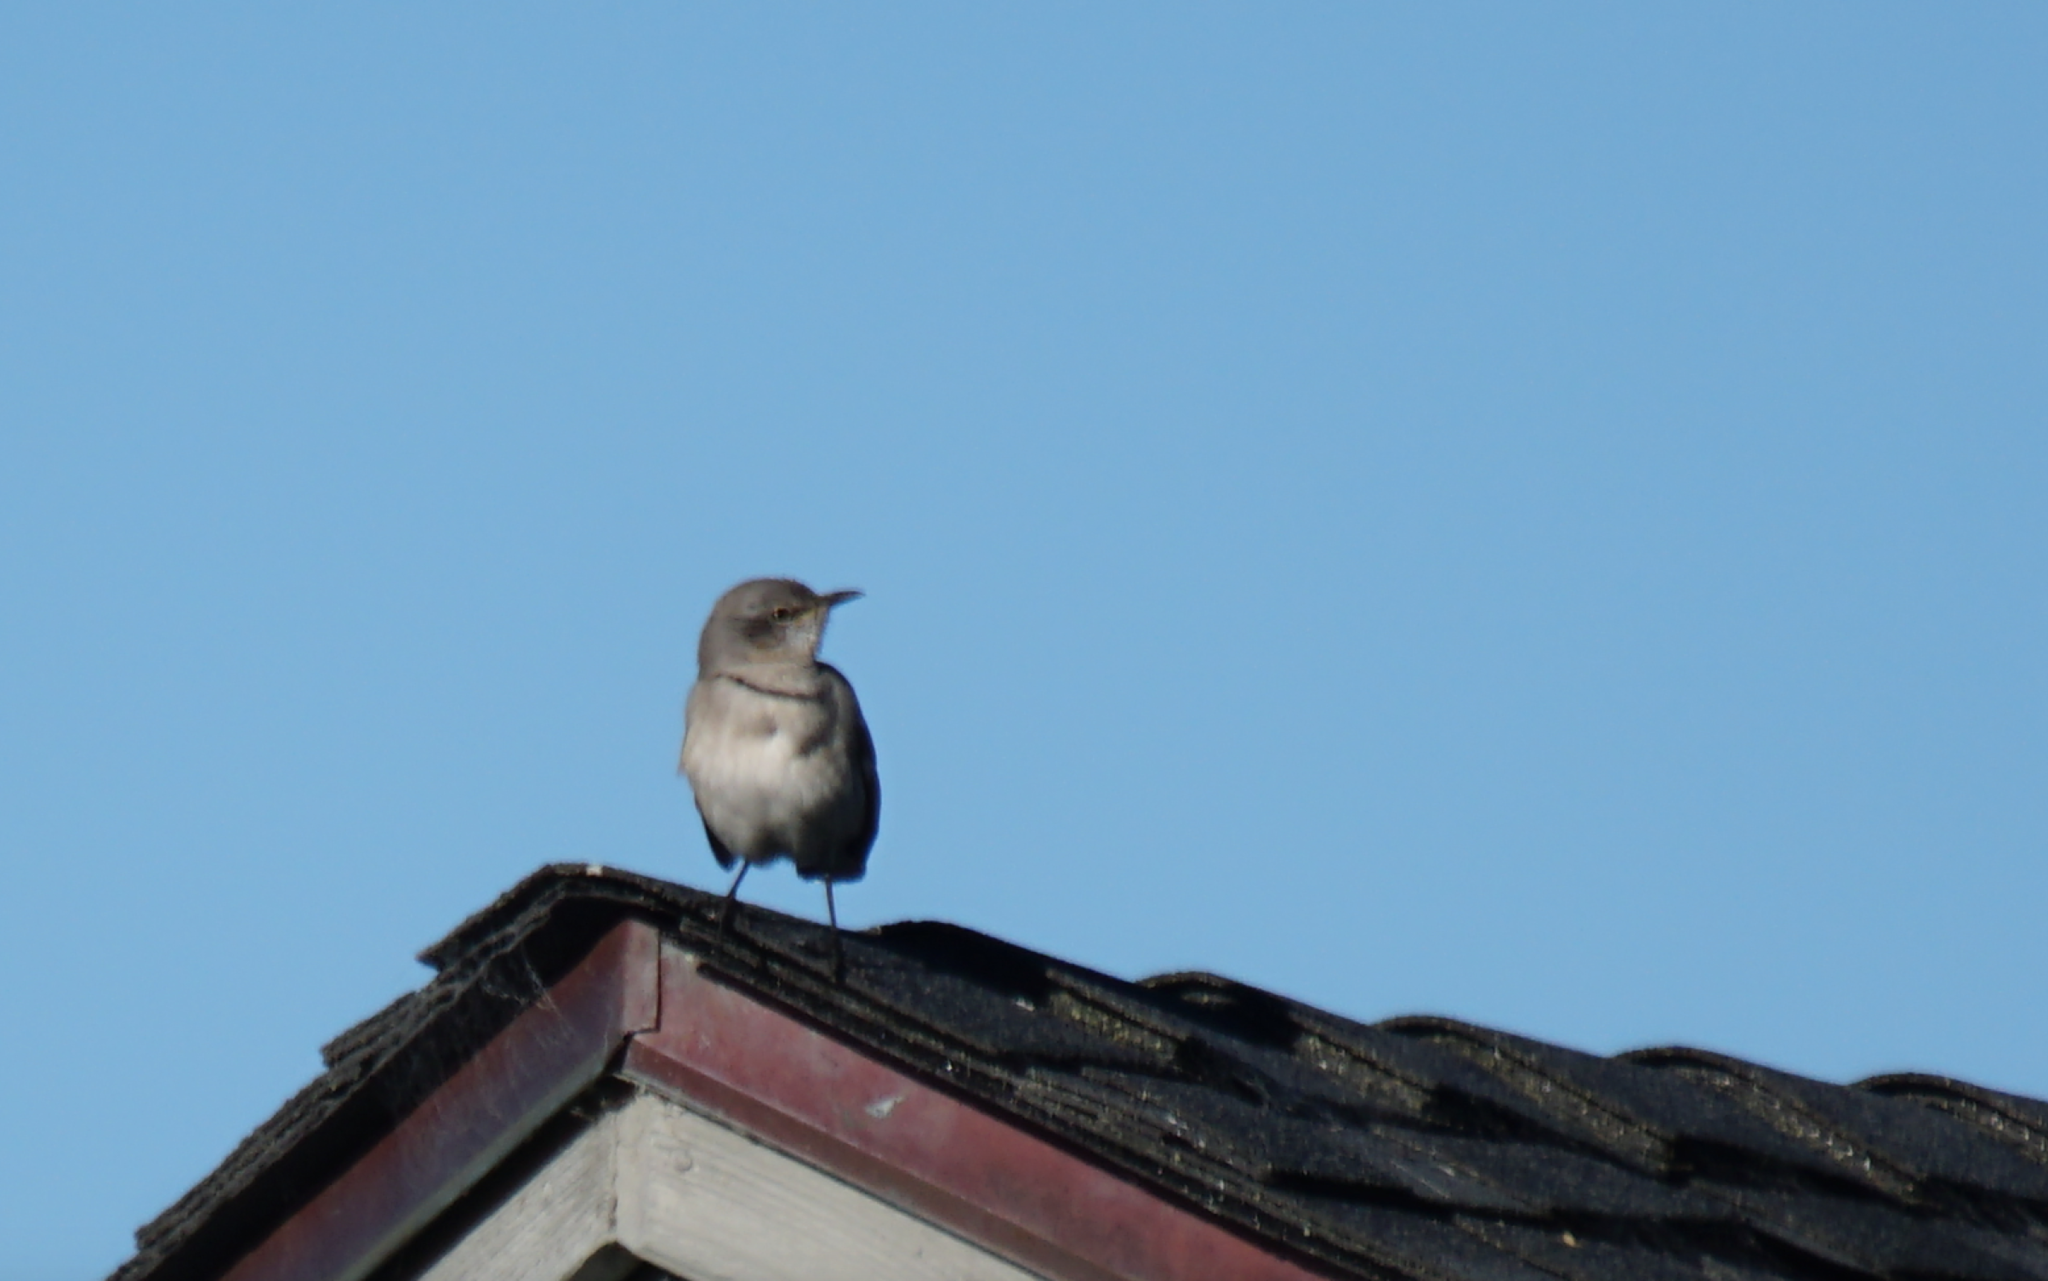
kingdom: Animalia
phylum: Chordata
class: Aves
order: Passeriformes
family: Mimidae
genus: Mimus
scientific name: Mimus polyglottos
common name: Northern mockingbird
